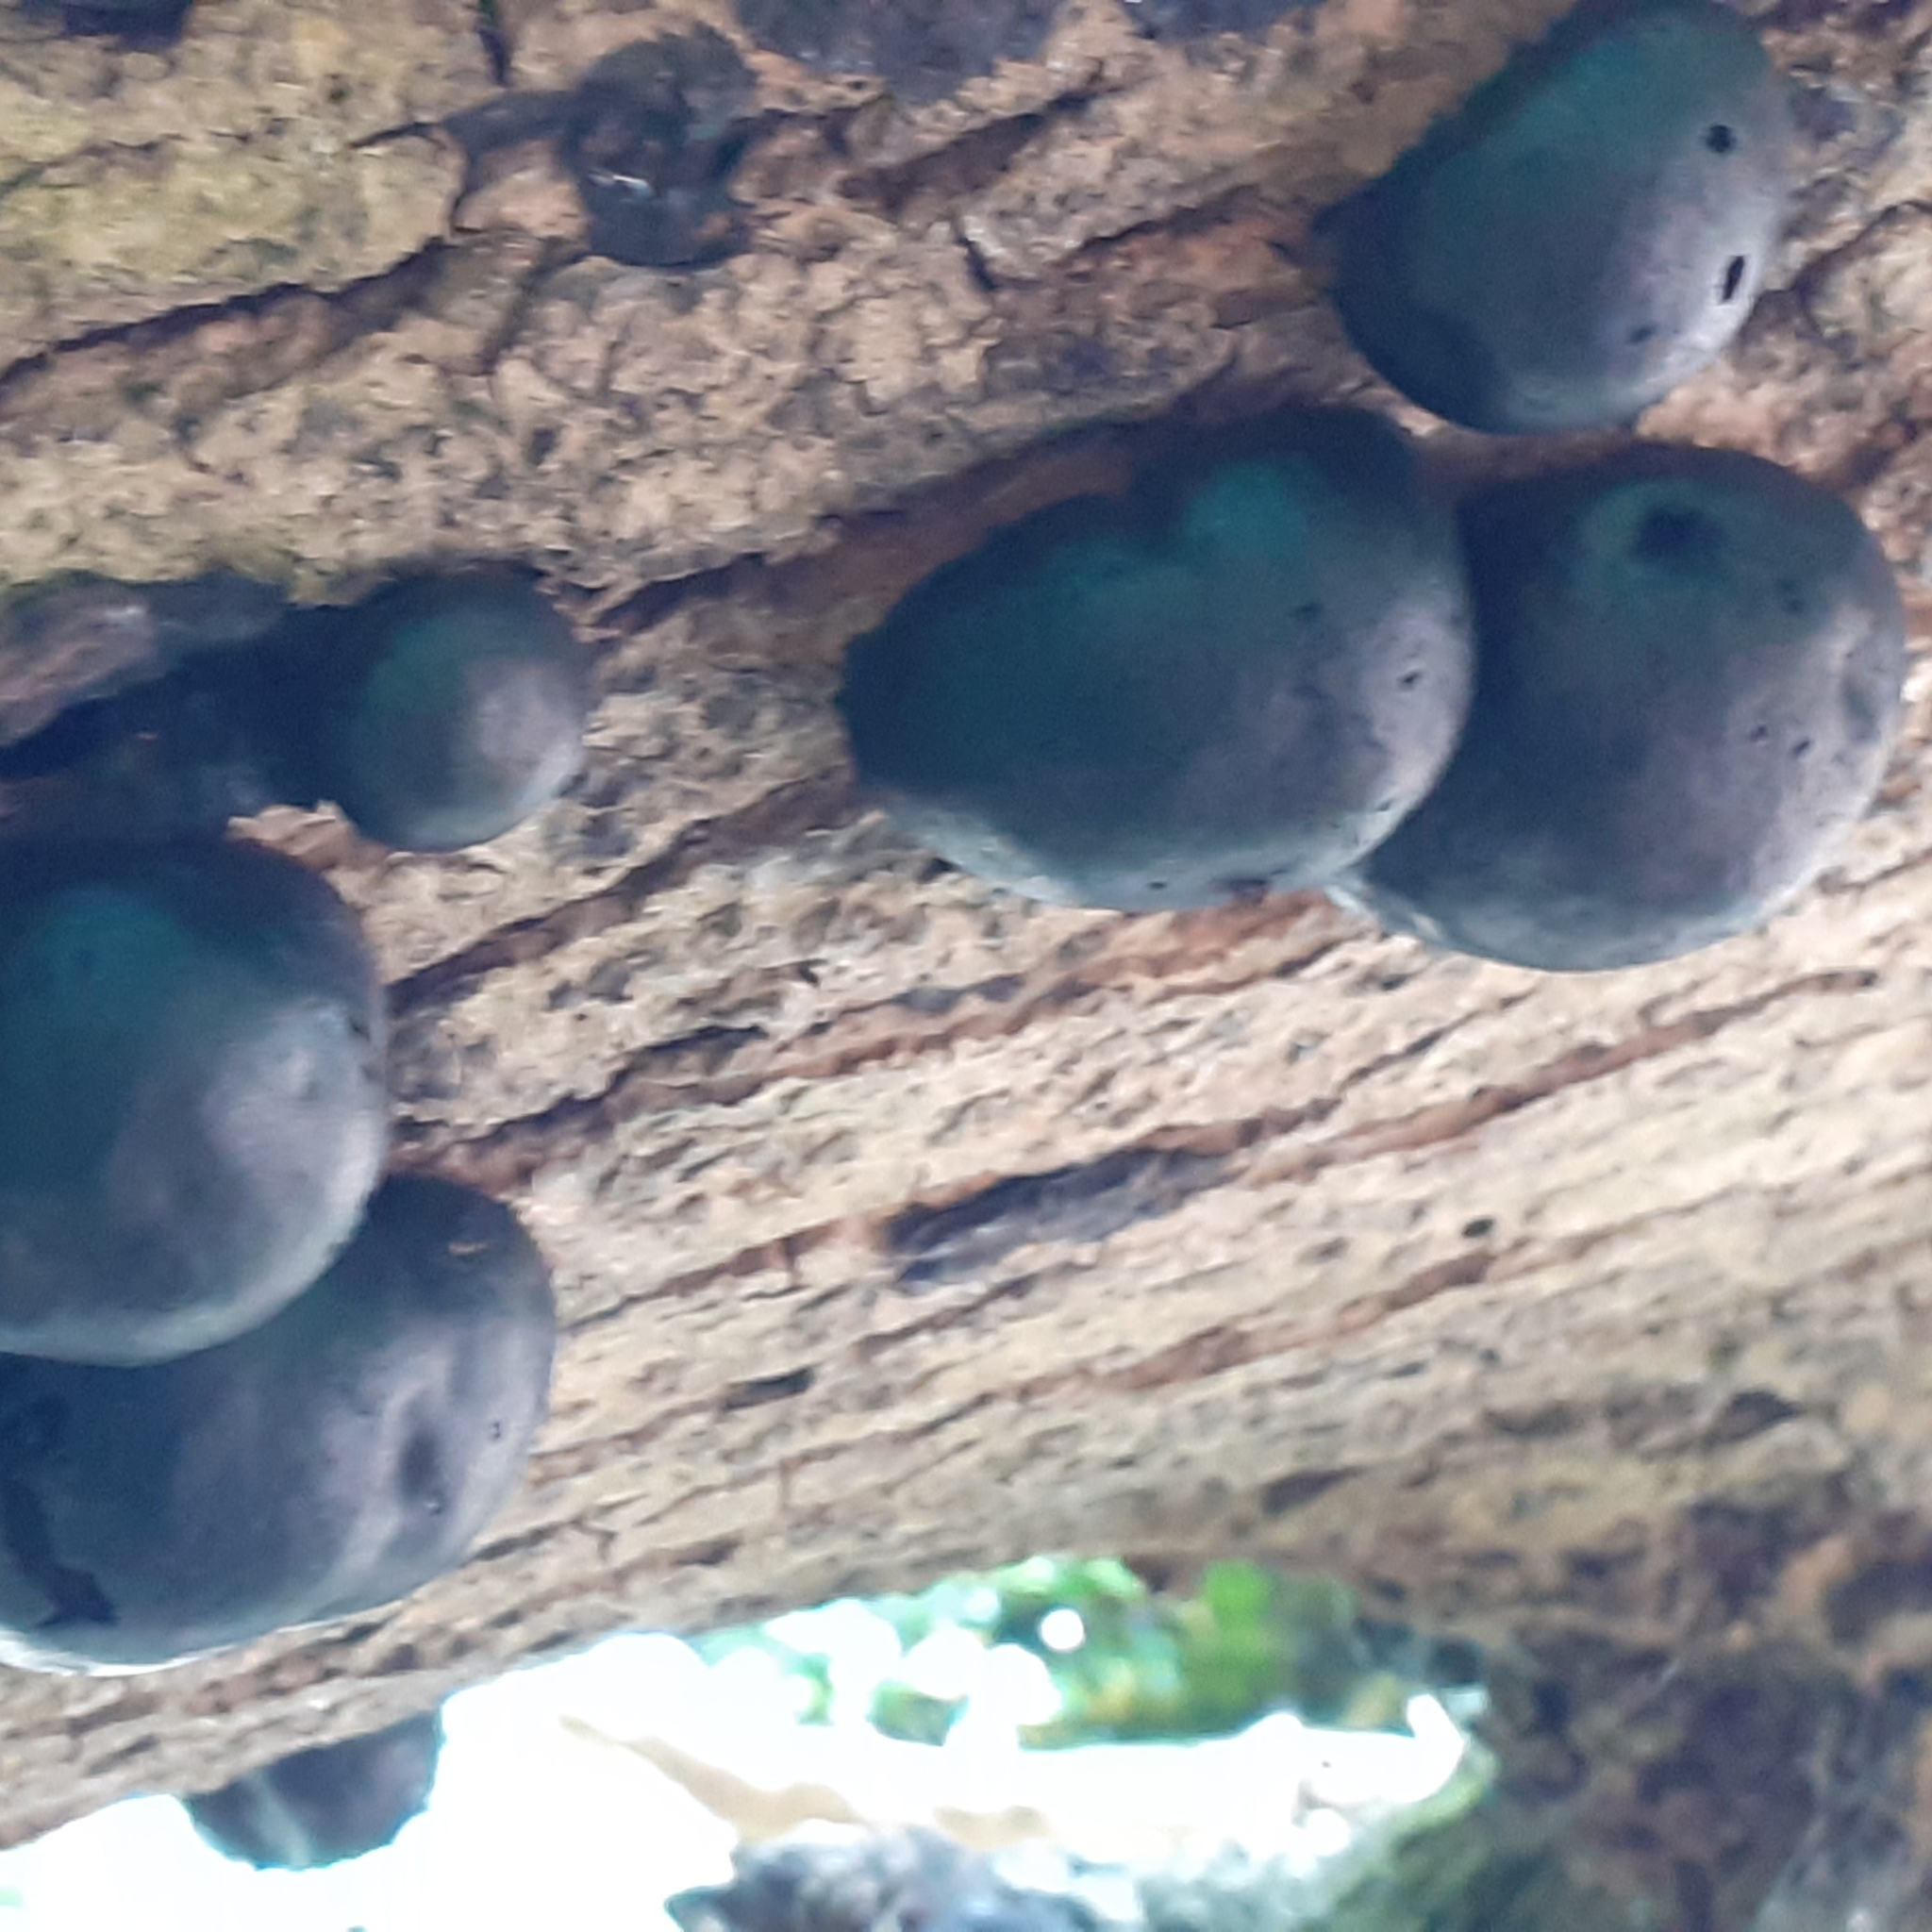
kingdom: Fungi
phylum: Ascomycota
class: Sordariomycetes
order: Xylariales
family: Hypoxylaceae
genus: Daldinia
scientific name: Daldinia concentrica
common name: Cramp balls
